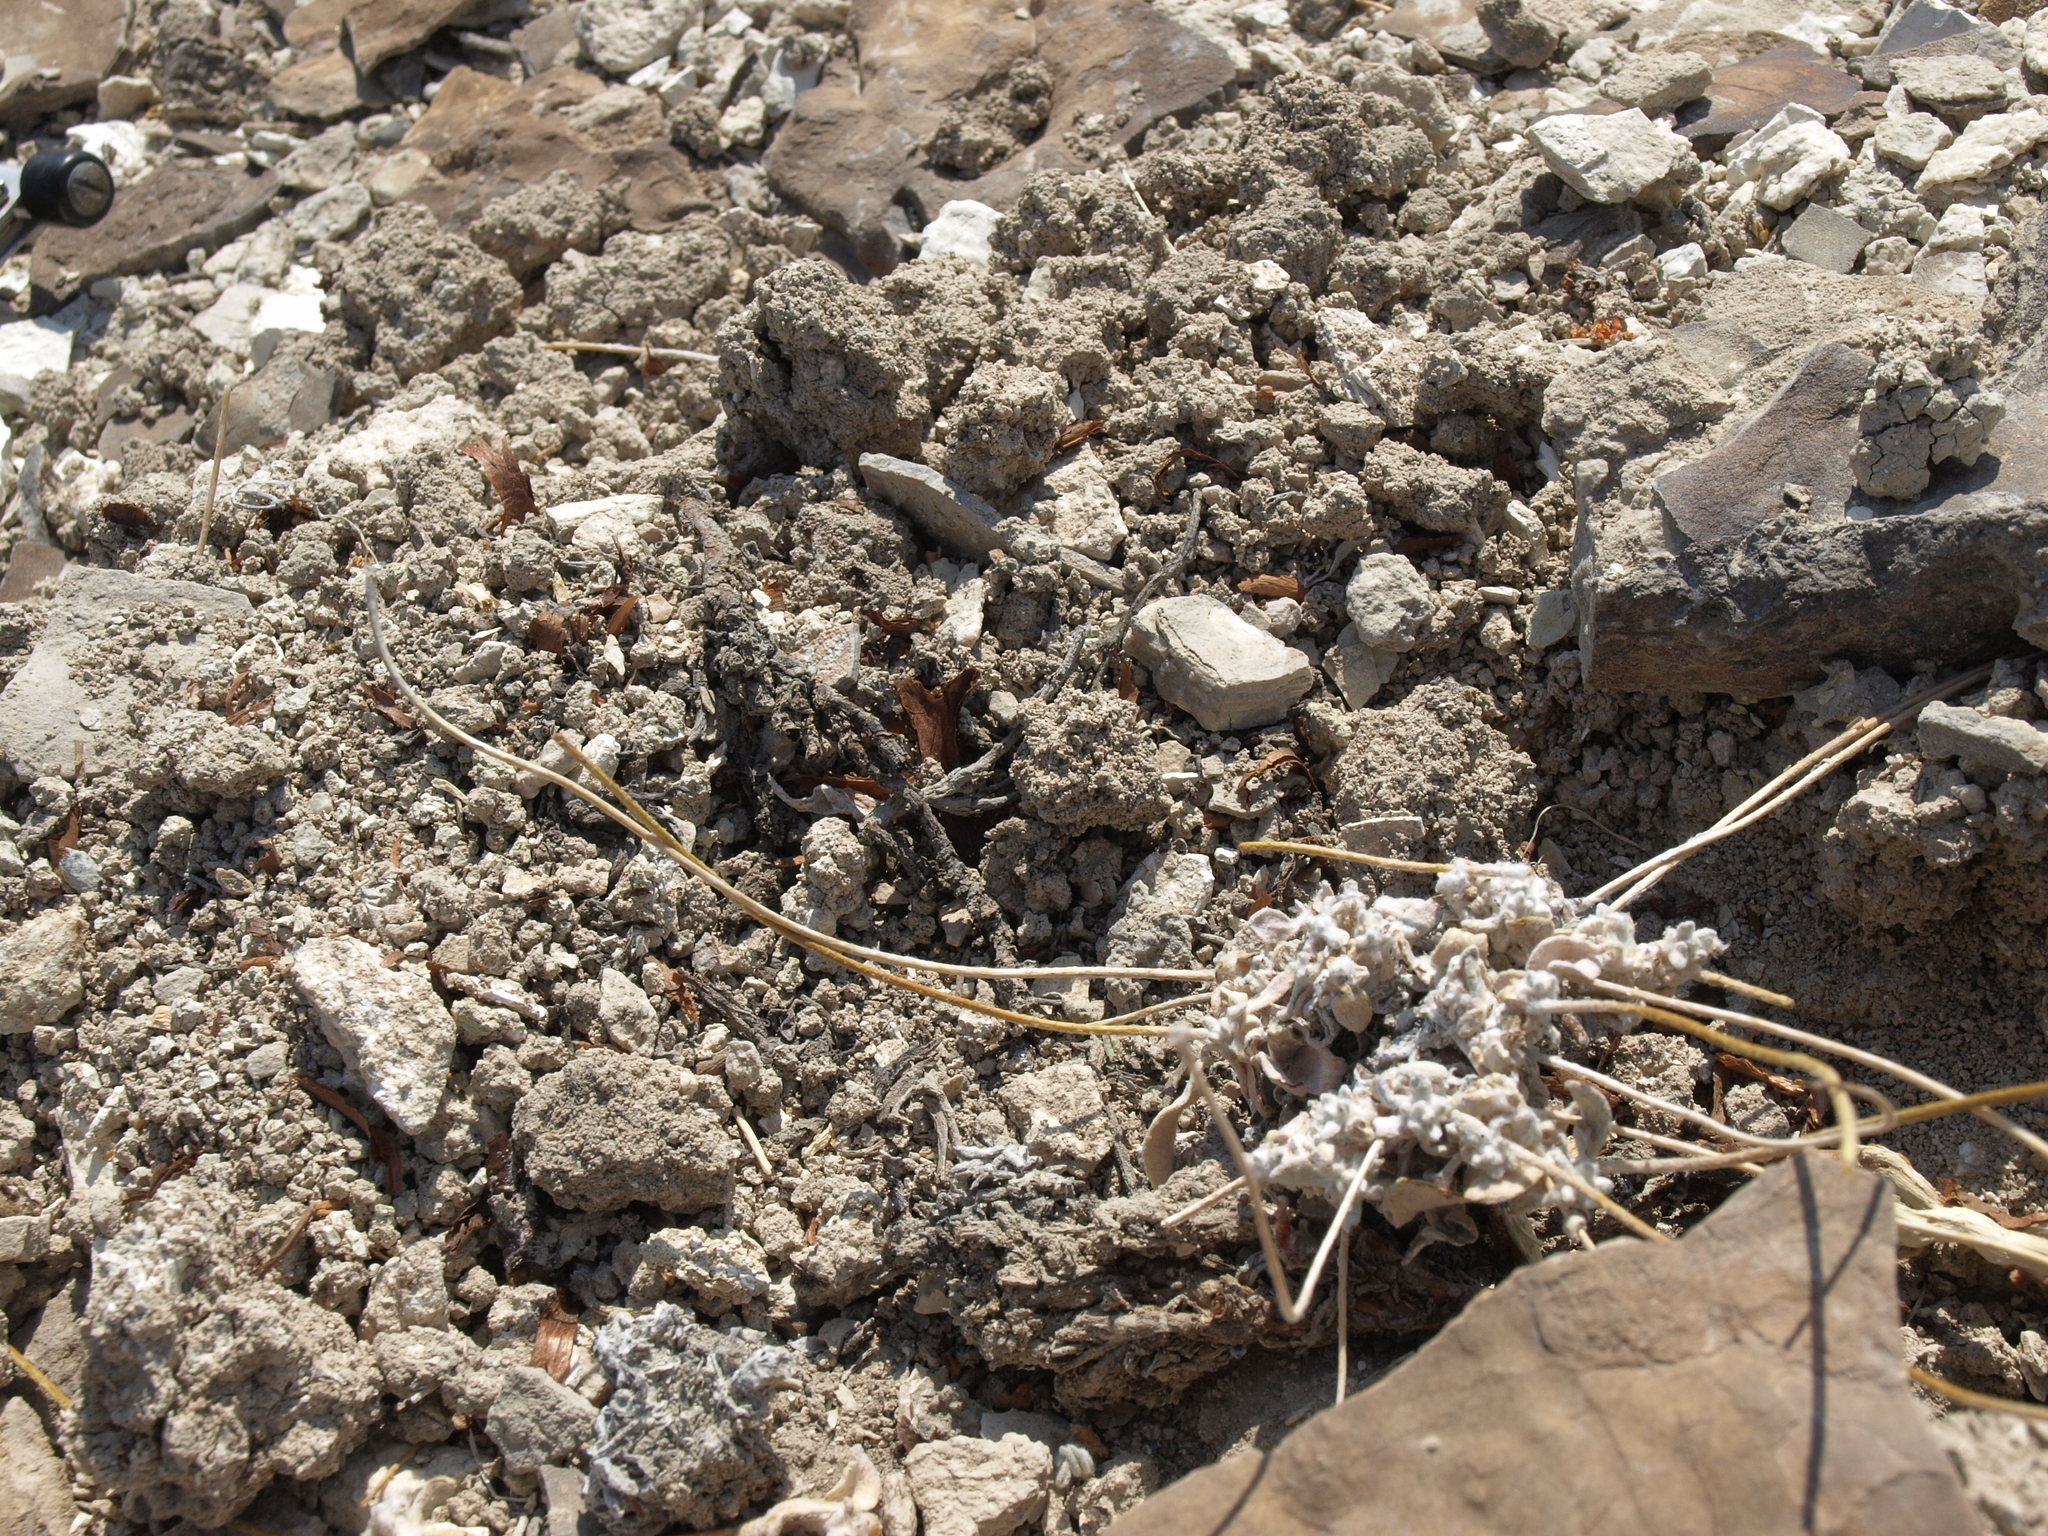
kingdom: Plantae
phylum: Tracheophyta
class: Magnoliopsida
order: Caryophyllales
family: Polygonaceae
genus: Eriogonum
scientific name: Eriogonum tiehmii
